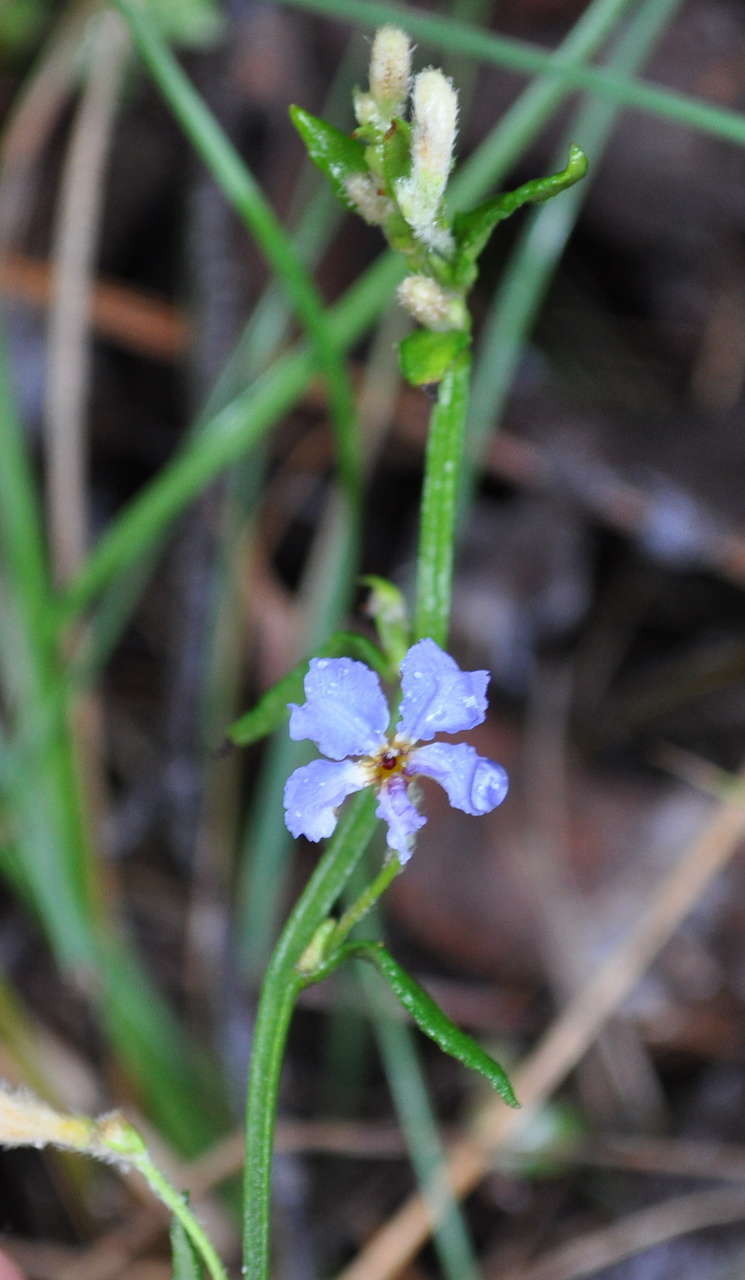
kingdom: Plantae
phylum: Tracheophyta
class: Magnoliopsida
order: Asterales
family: Goodeniaceae
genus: Dampiera
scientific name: Dampiera stricta
